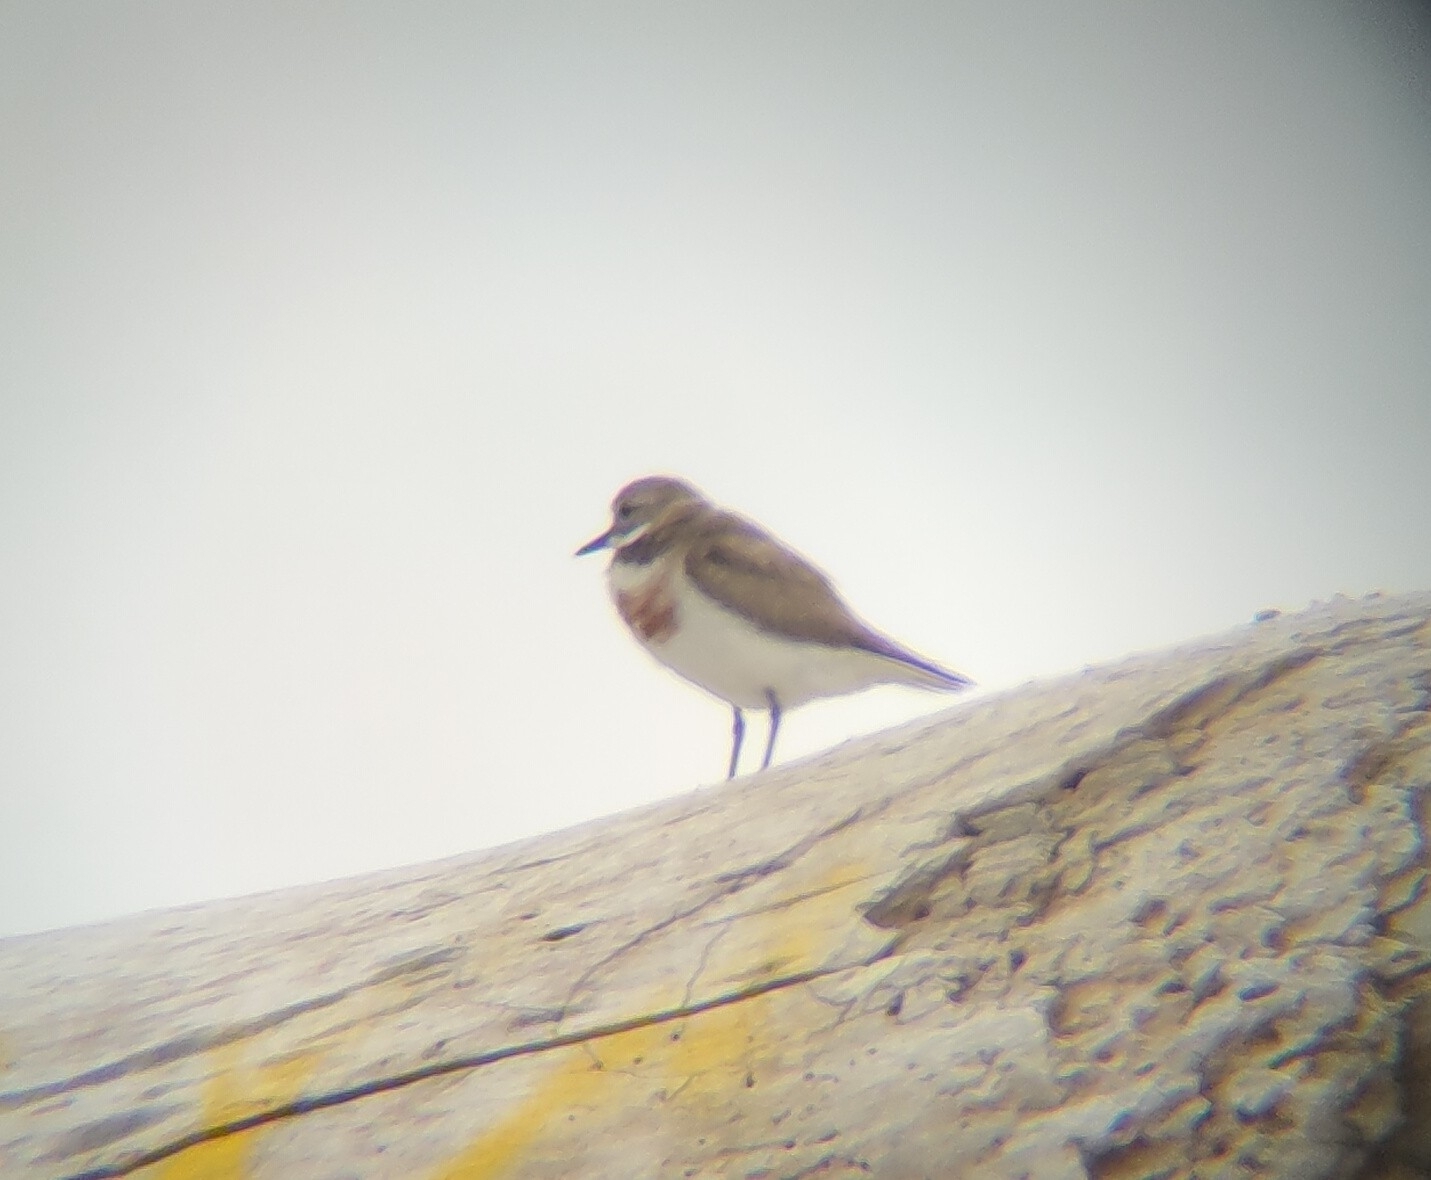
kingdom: Animalia
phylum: Chordata
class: Aves
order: Charadriiformes
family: Charadriidae
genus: Anarhynchus
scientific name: Anarhynchus
